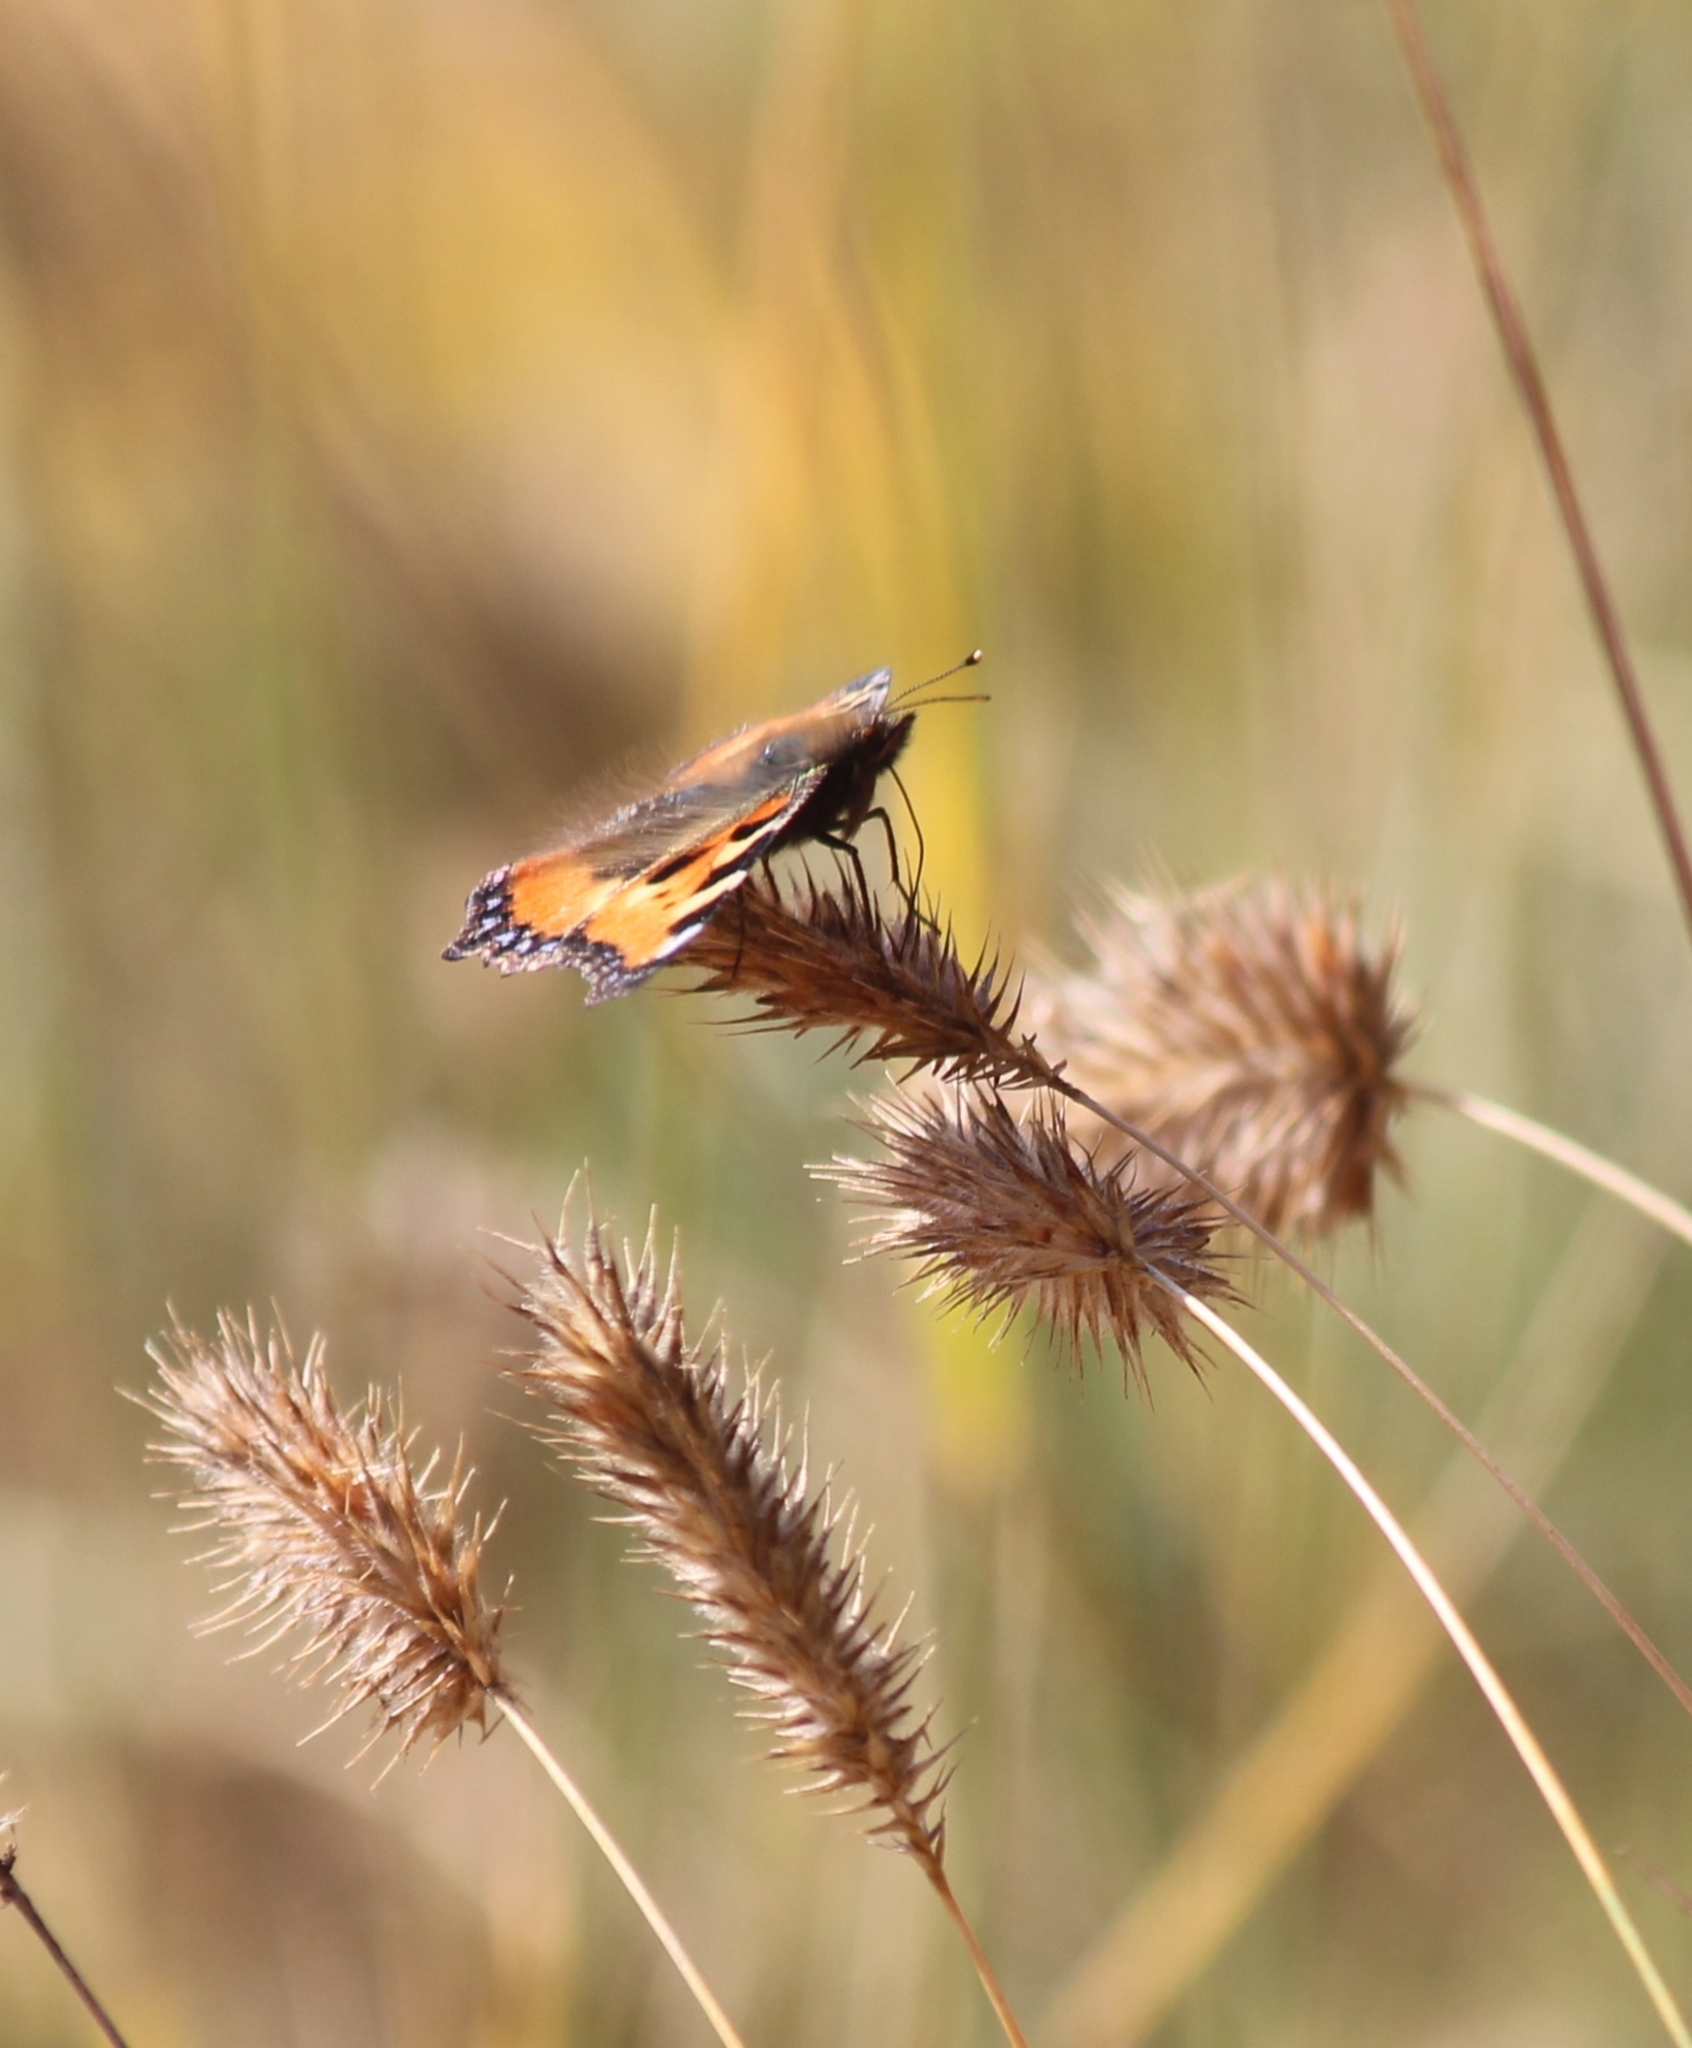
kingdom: Animalia
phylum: Arthropoda
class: Insecta
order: Lepidoptera
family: Nymphalidae
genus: Aglais
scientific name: Aglais urticae
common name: Small tortoiseshell
